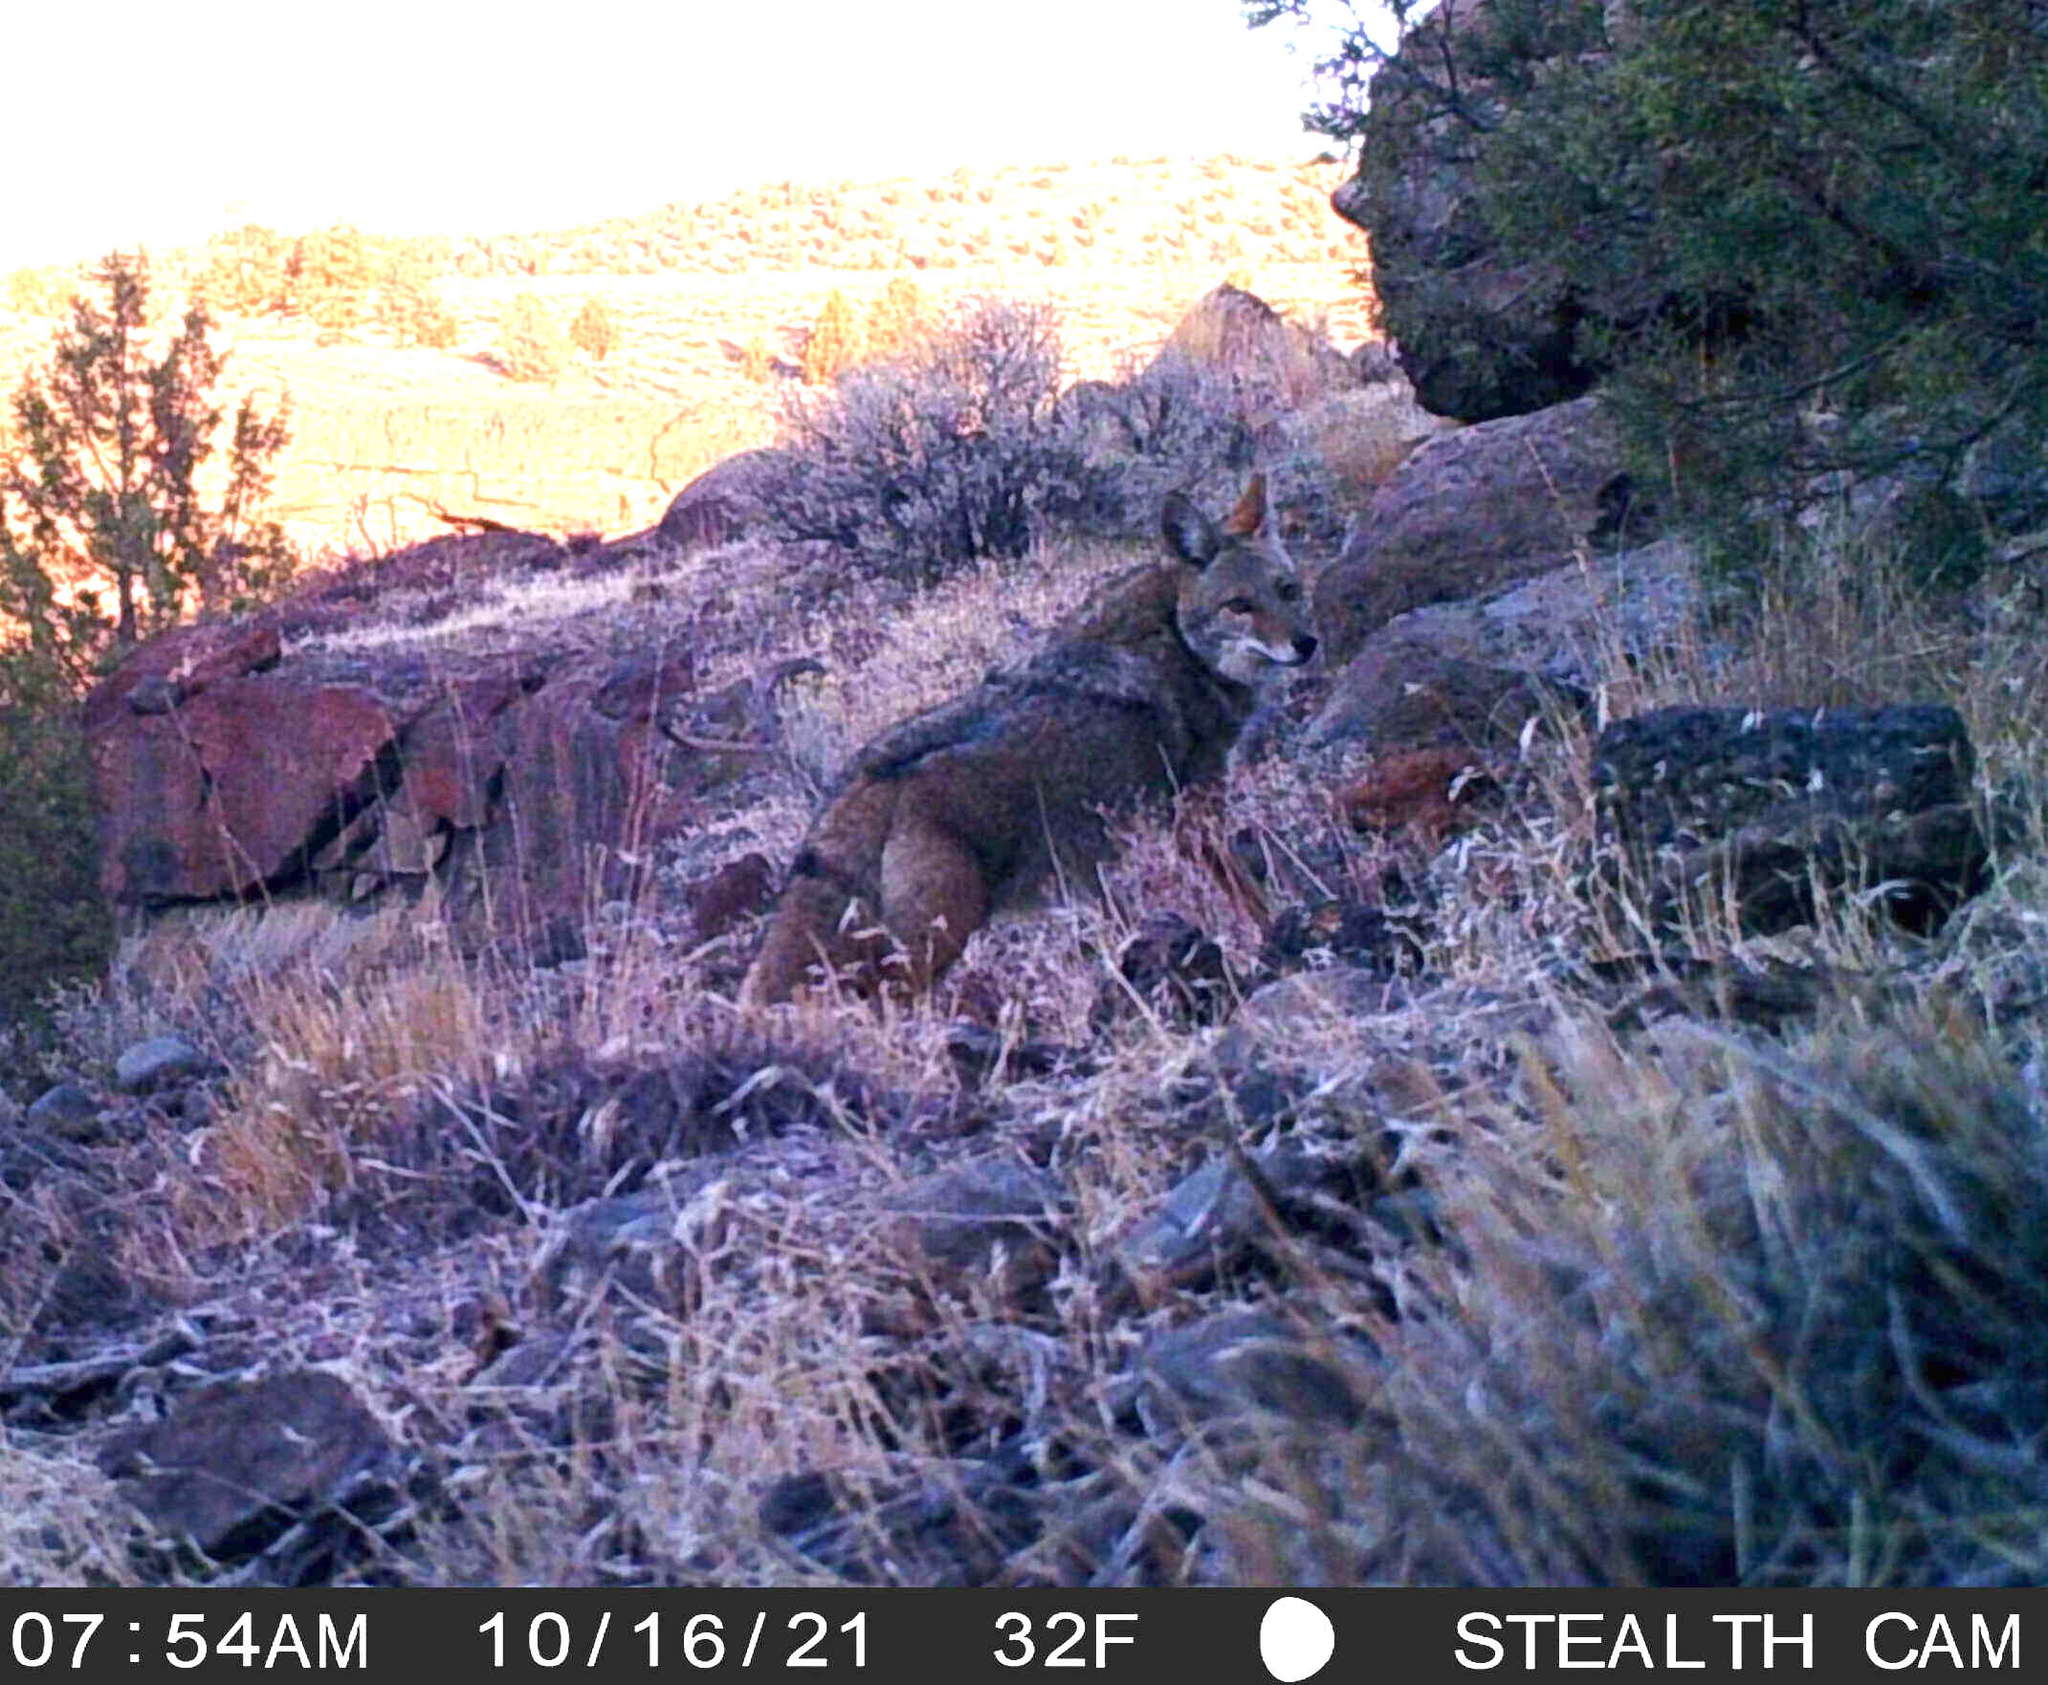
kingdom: Animalia
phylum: Chordata
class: Mammalia
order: Carnivora
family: Canidae
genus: Canis
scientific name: Canis latrans
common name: Coyote
